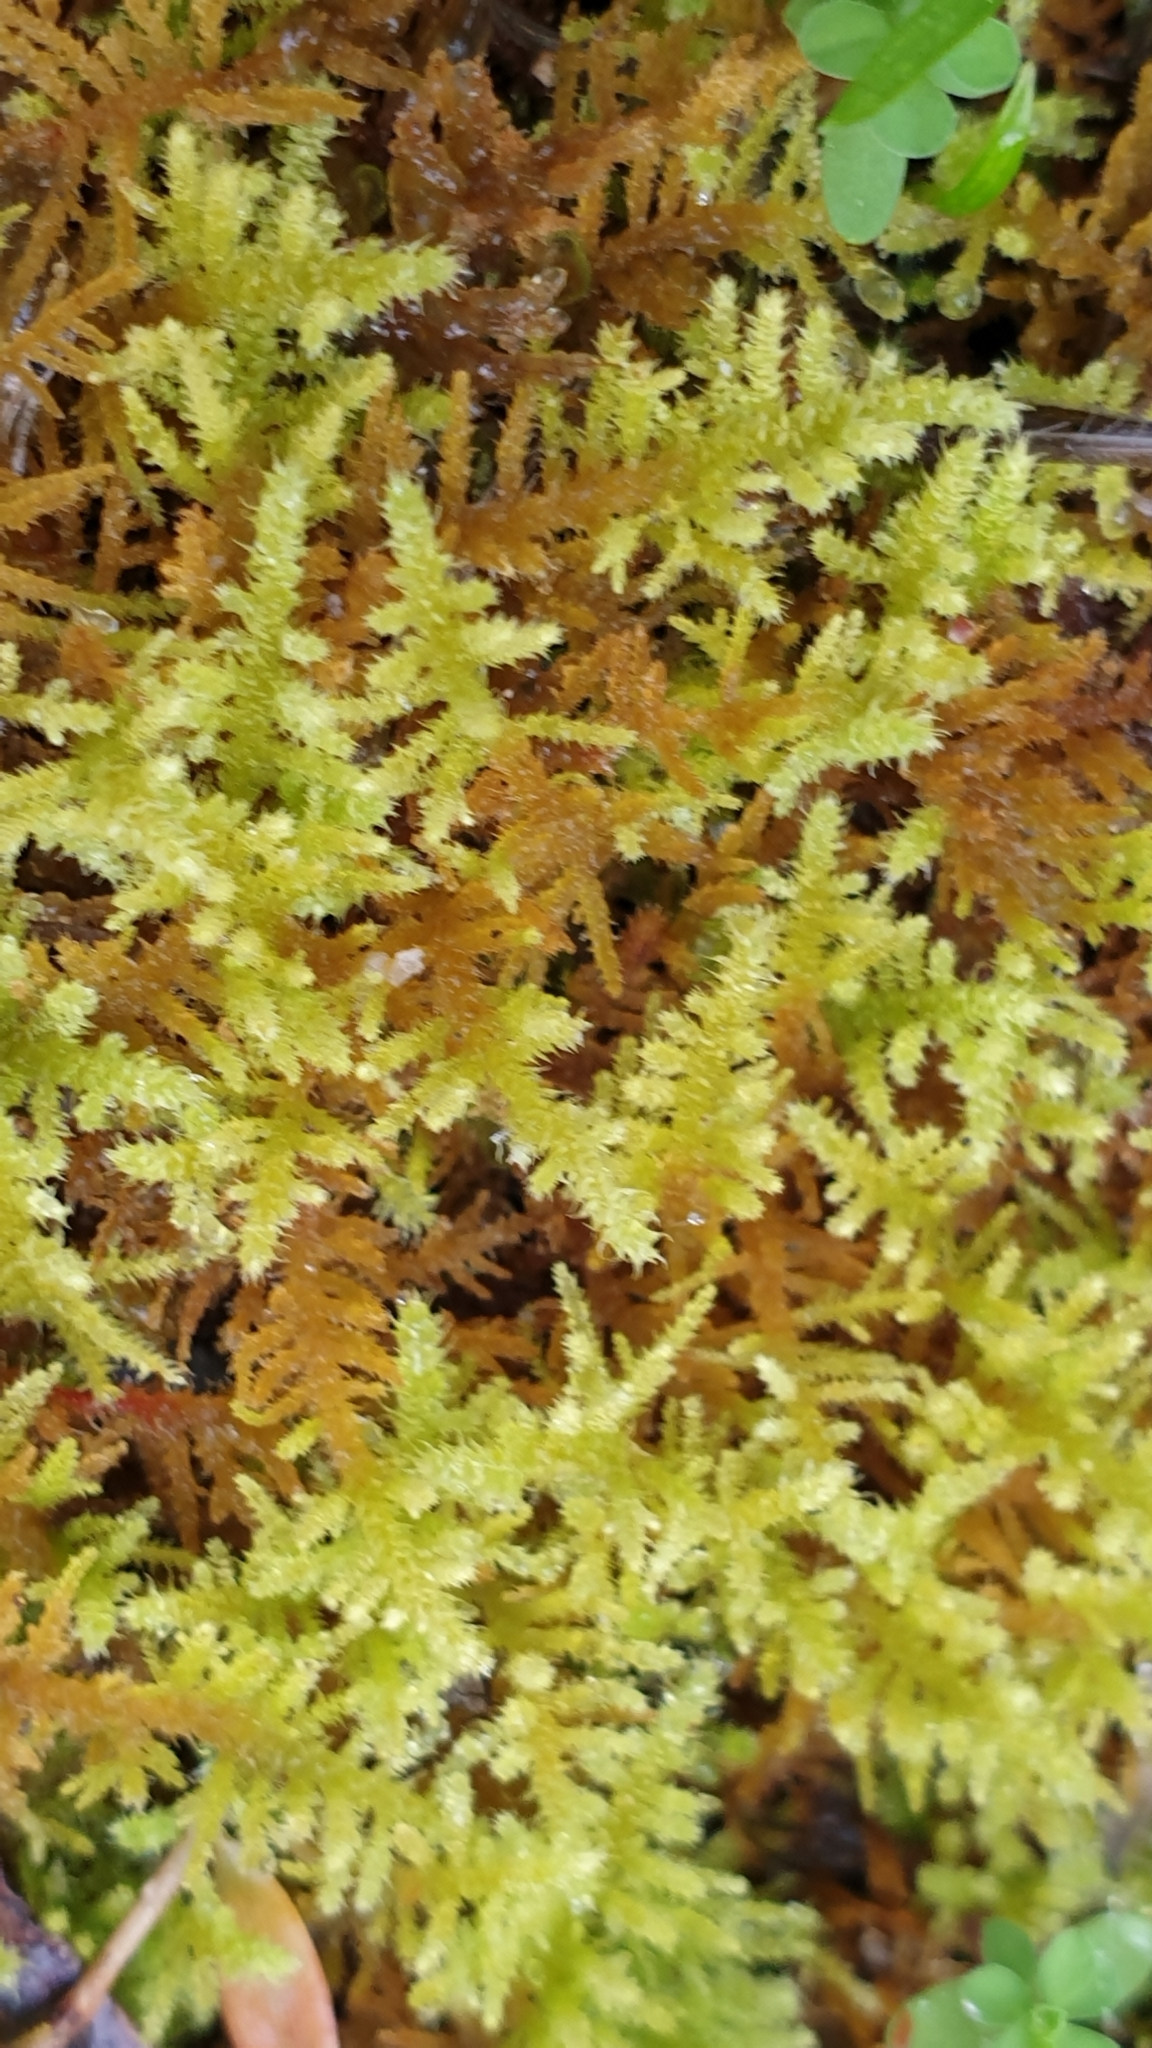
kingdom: Plantae
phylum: Bryophyta
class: Bryopsida
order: Hypnales
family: Thuidiaceae
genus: Thuidiopsis
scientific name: Thuidiopsis sparsa
